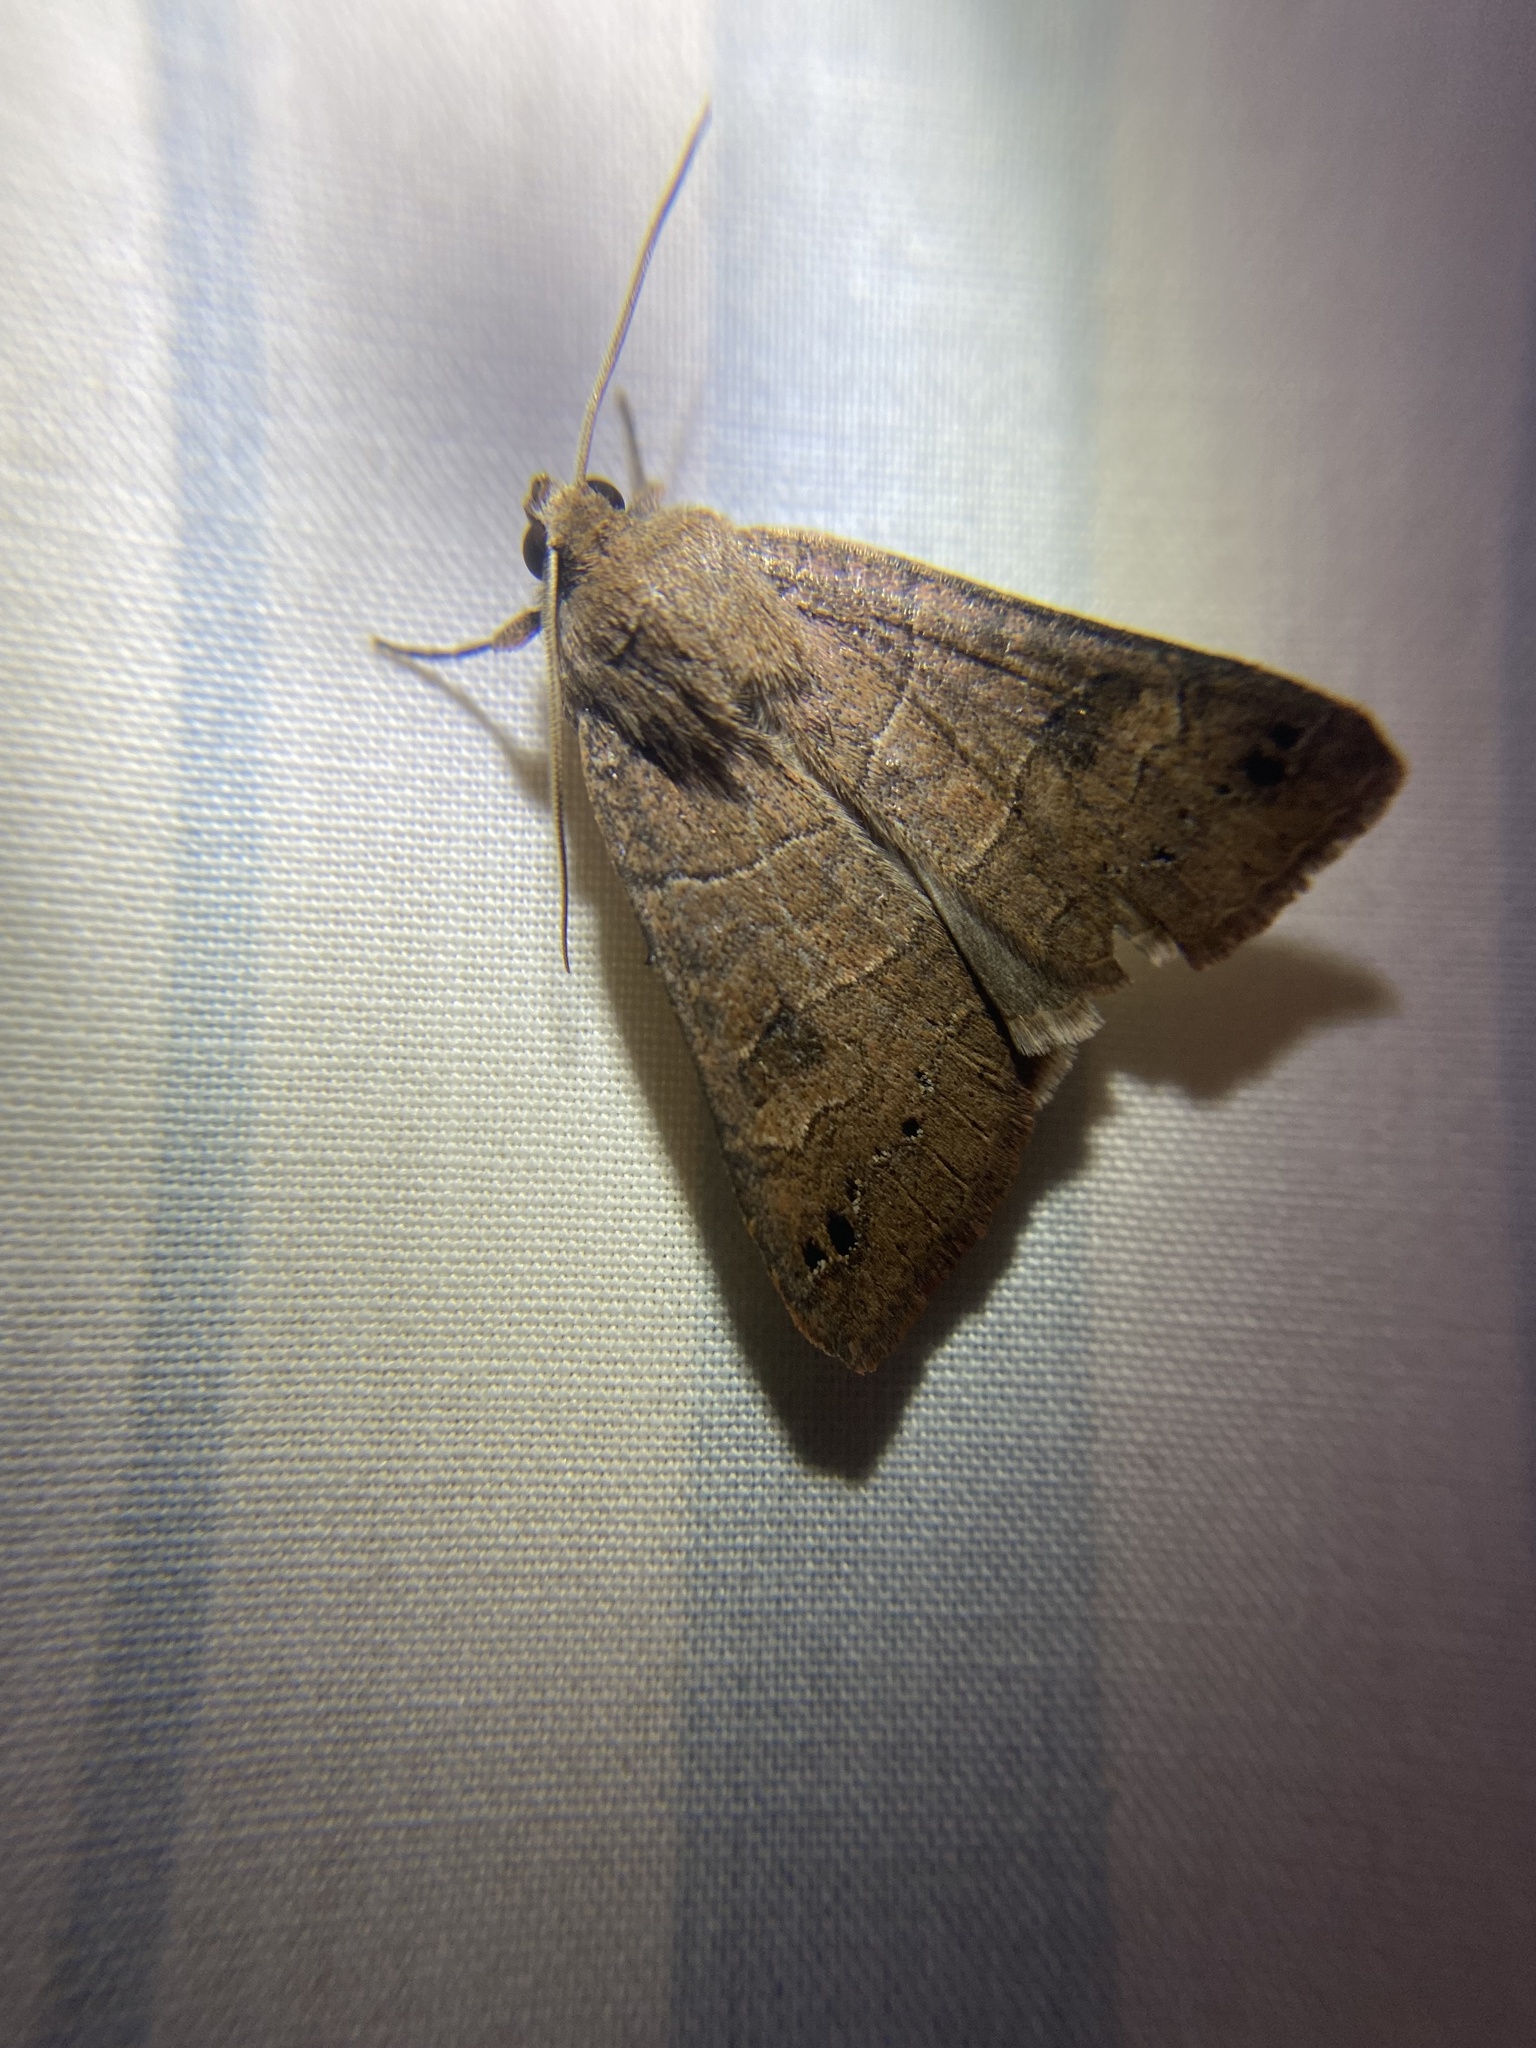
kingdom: Animalia
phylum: Arthropoda
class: Insecta
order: Lepidoptera
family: Erebidae
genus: Cissusa
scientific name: Cissusa spadix
